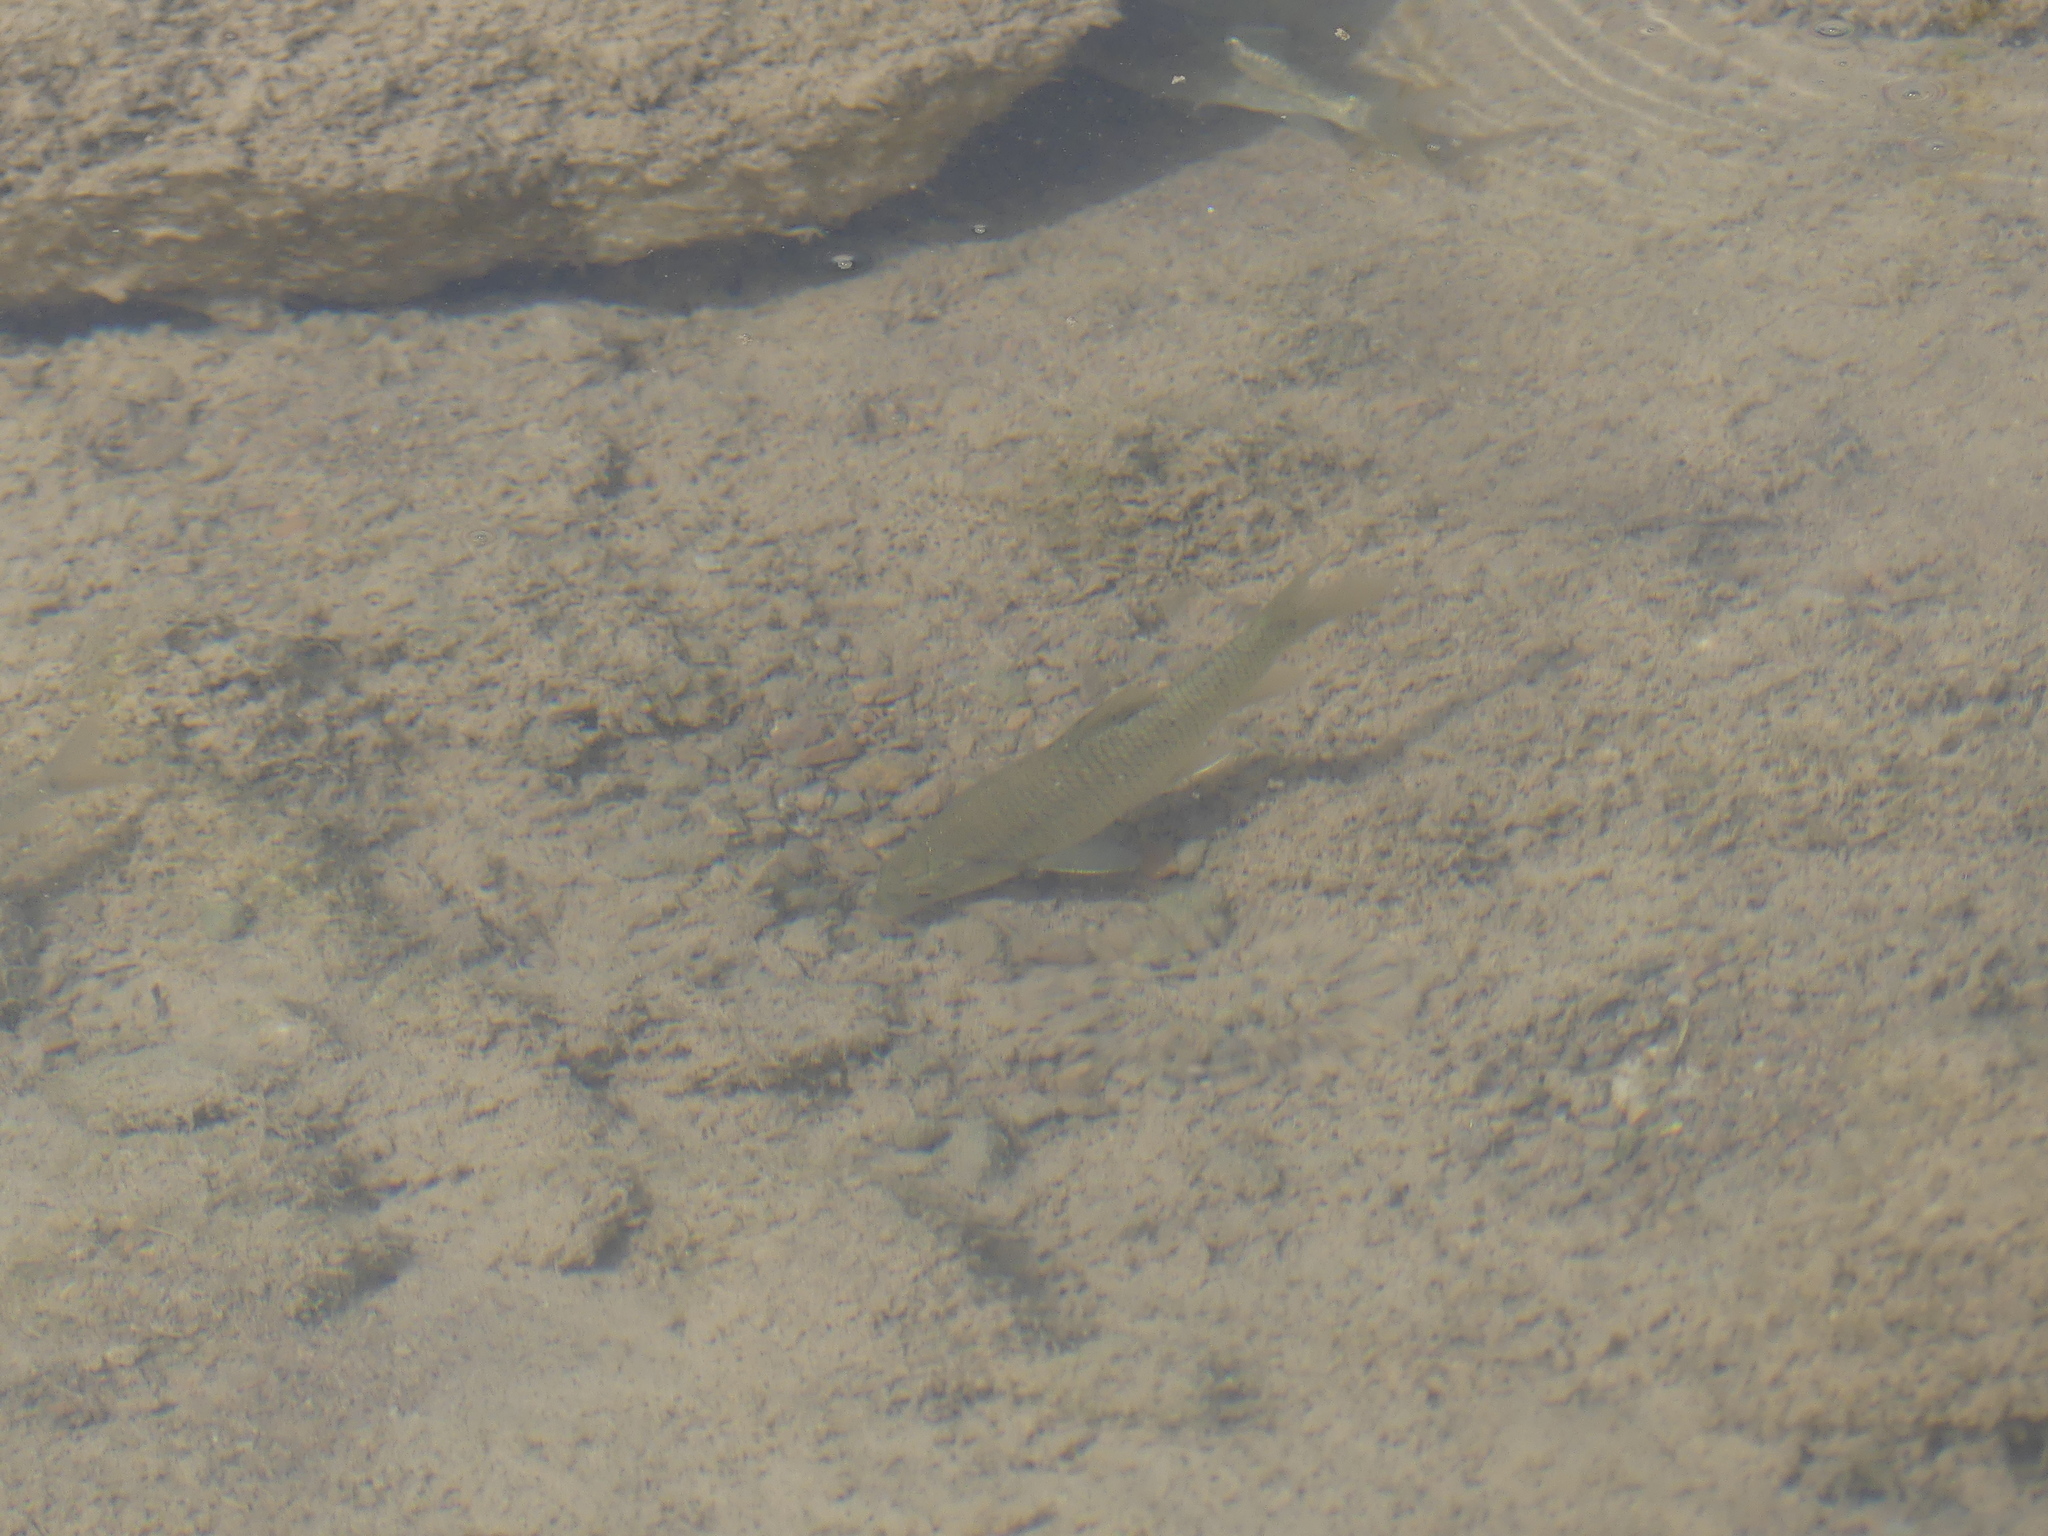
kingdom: Animalia
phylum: Chordata
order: Cypriniformes
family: Cyprinidae
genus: Luciobarbus
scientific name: Luciobarbus pallaryi
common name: Zousfana barbel
